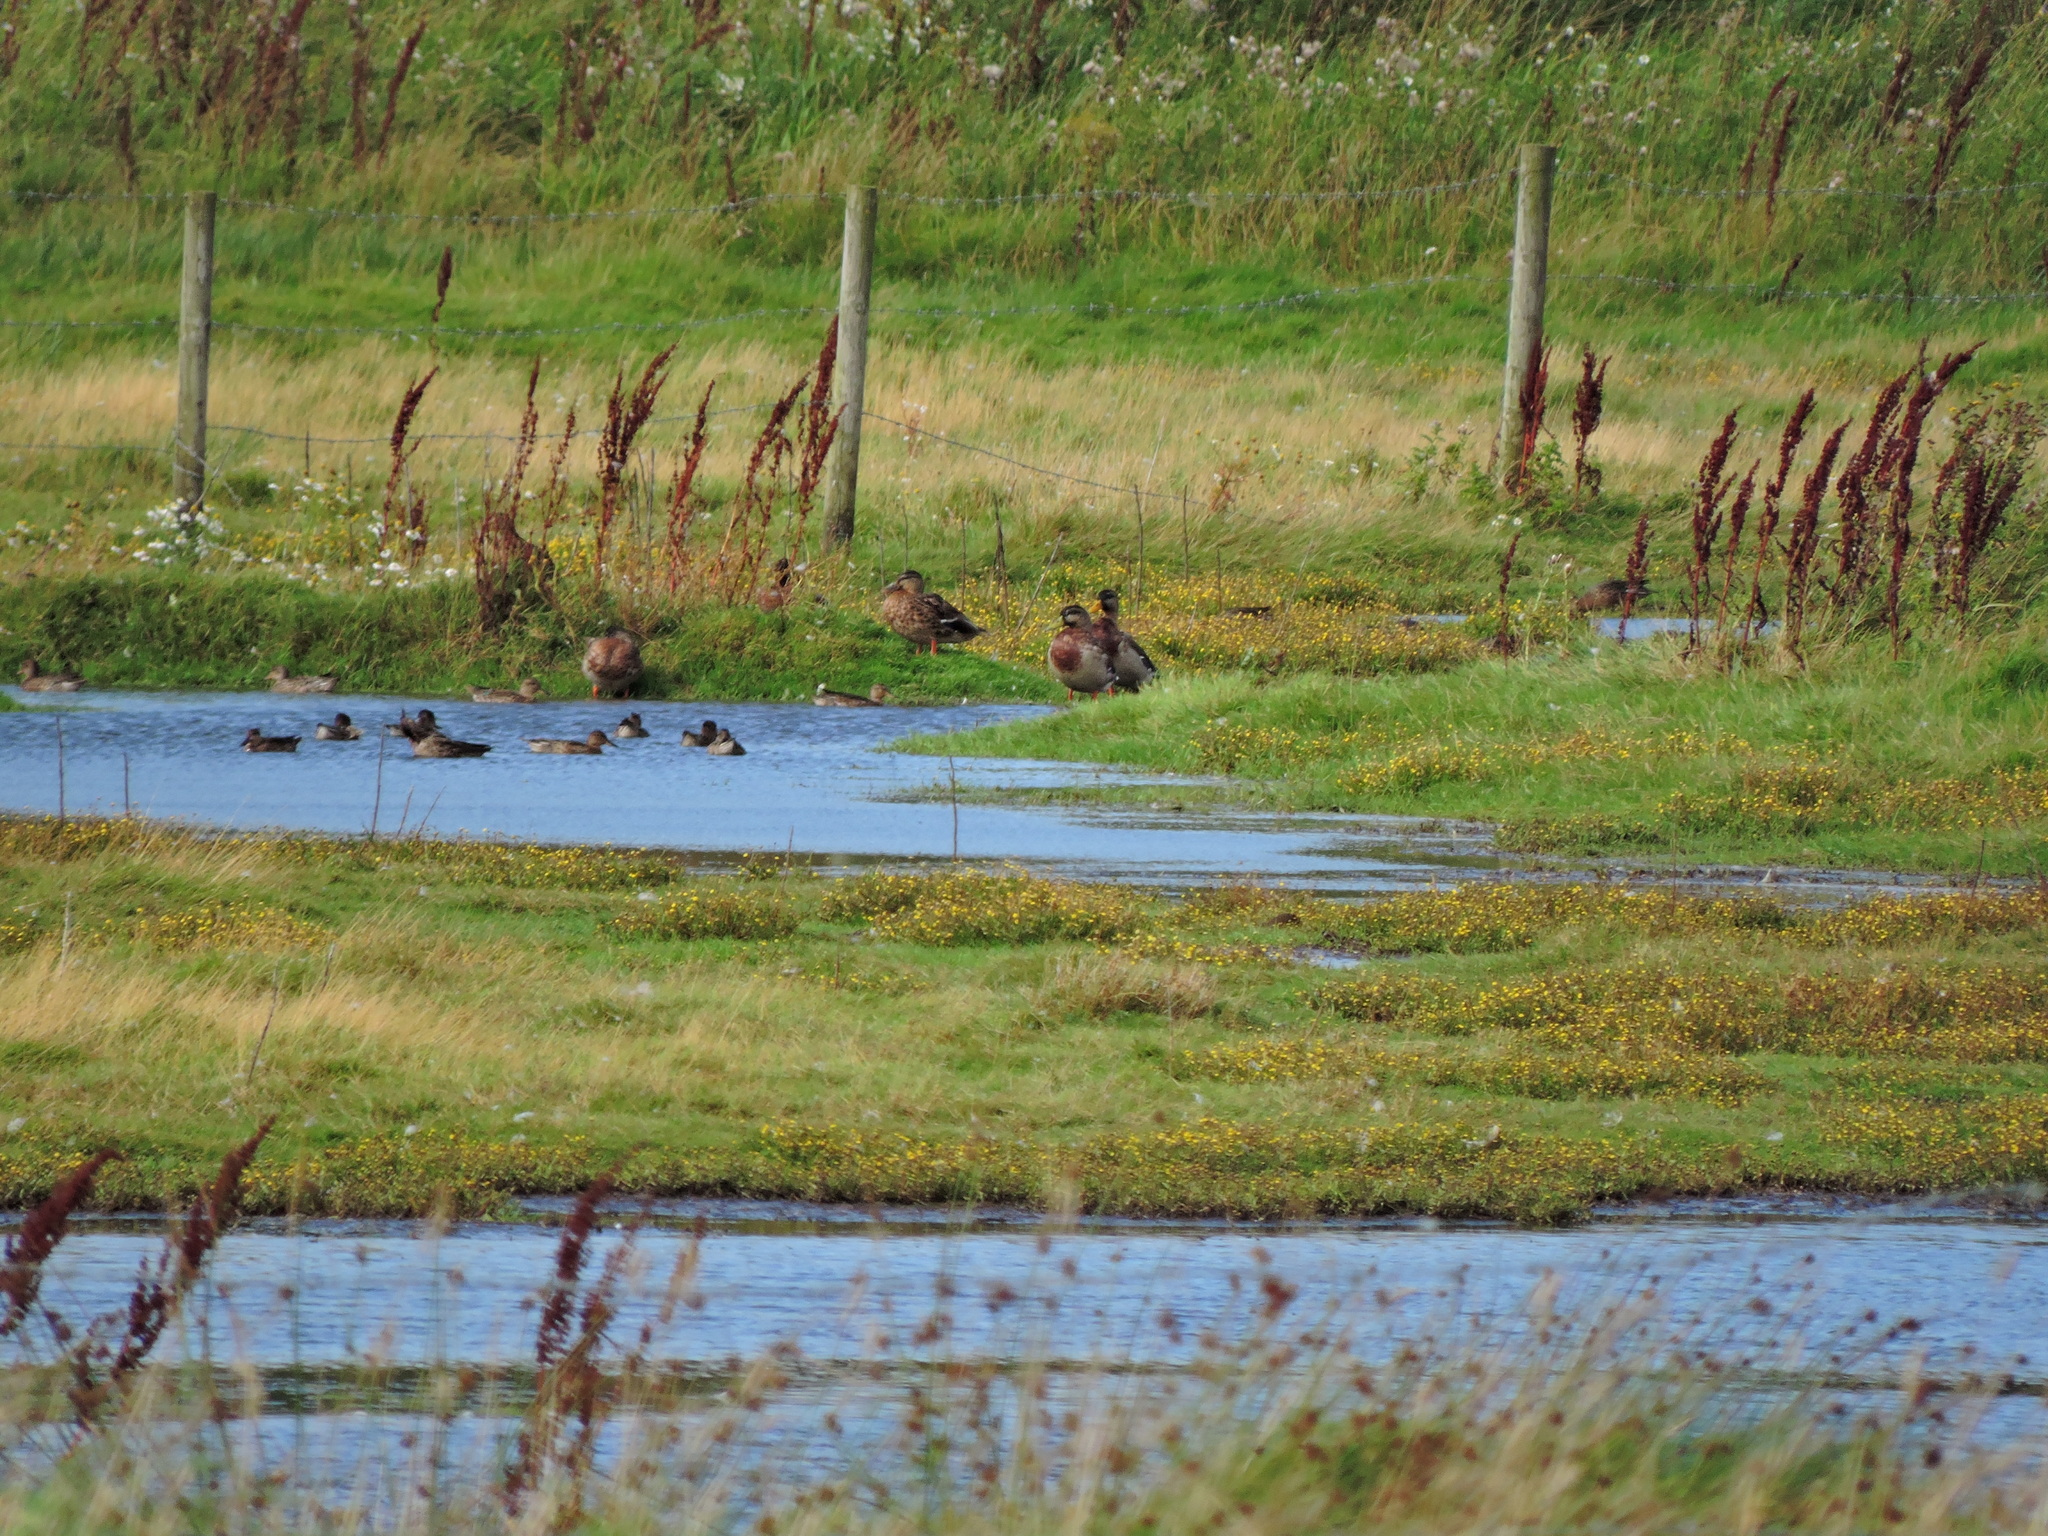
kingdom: Animalia
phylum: Chordata
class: Aves
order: Anseriformes
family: Anatidae
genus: Anas
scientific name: Anas crecca
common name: Eurasian teal
